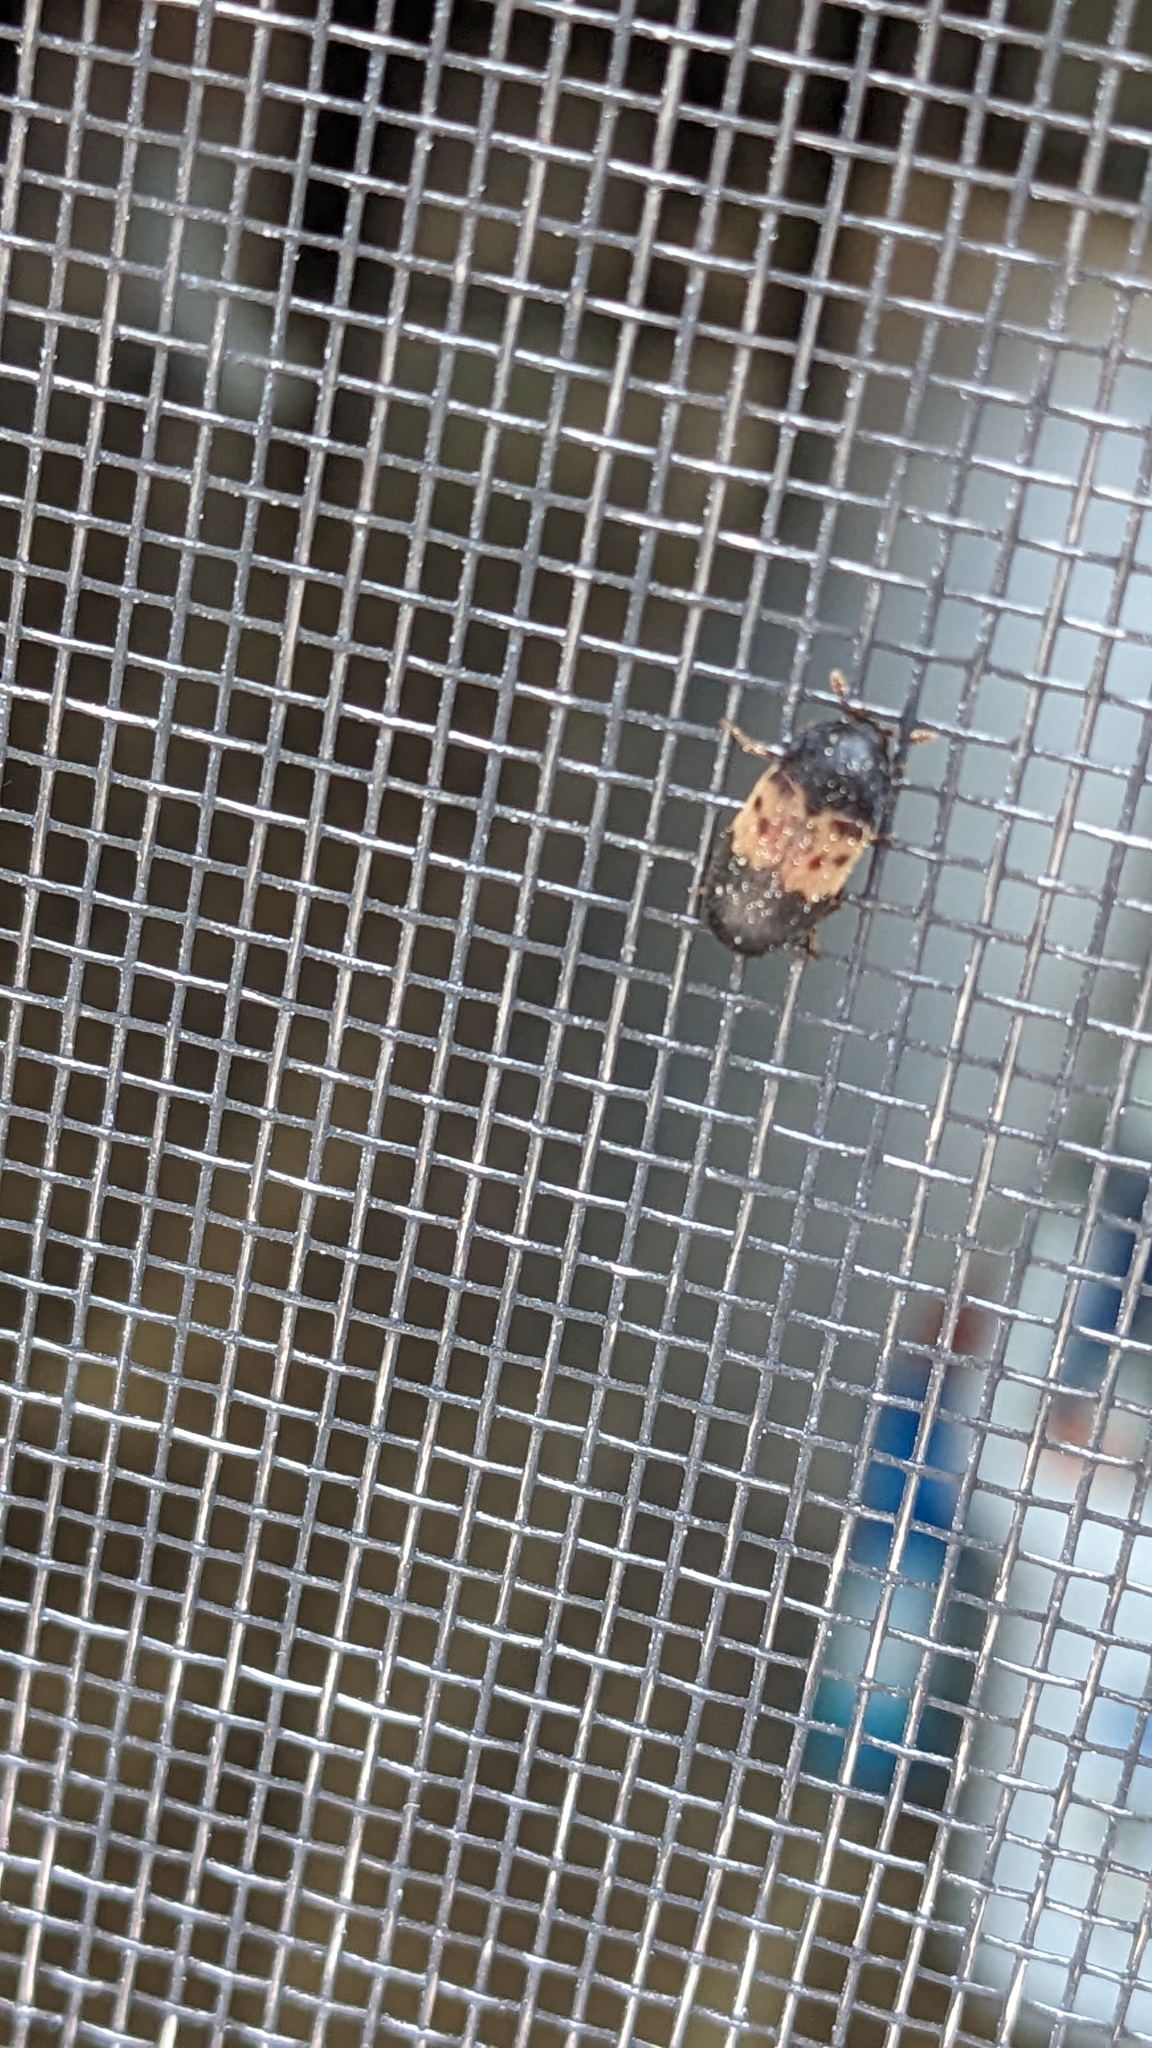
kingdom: Animalia
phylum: Arthropoda
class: Insecta
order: Coleoptera
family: Dermestidae
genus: Dermestes
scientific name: Dermestes lardarius
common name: Larder beetle
